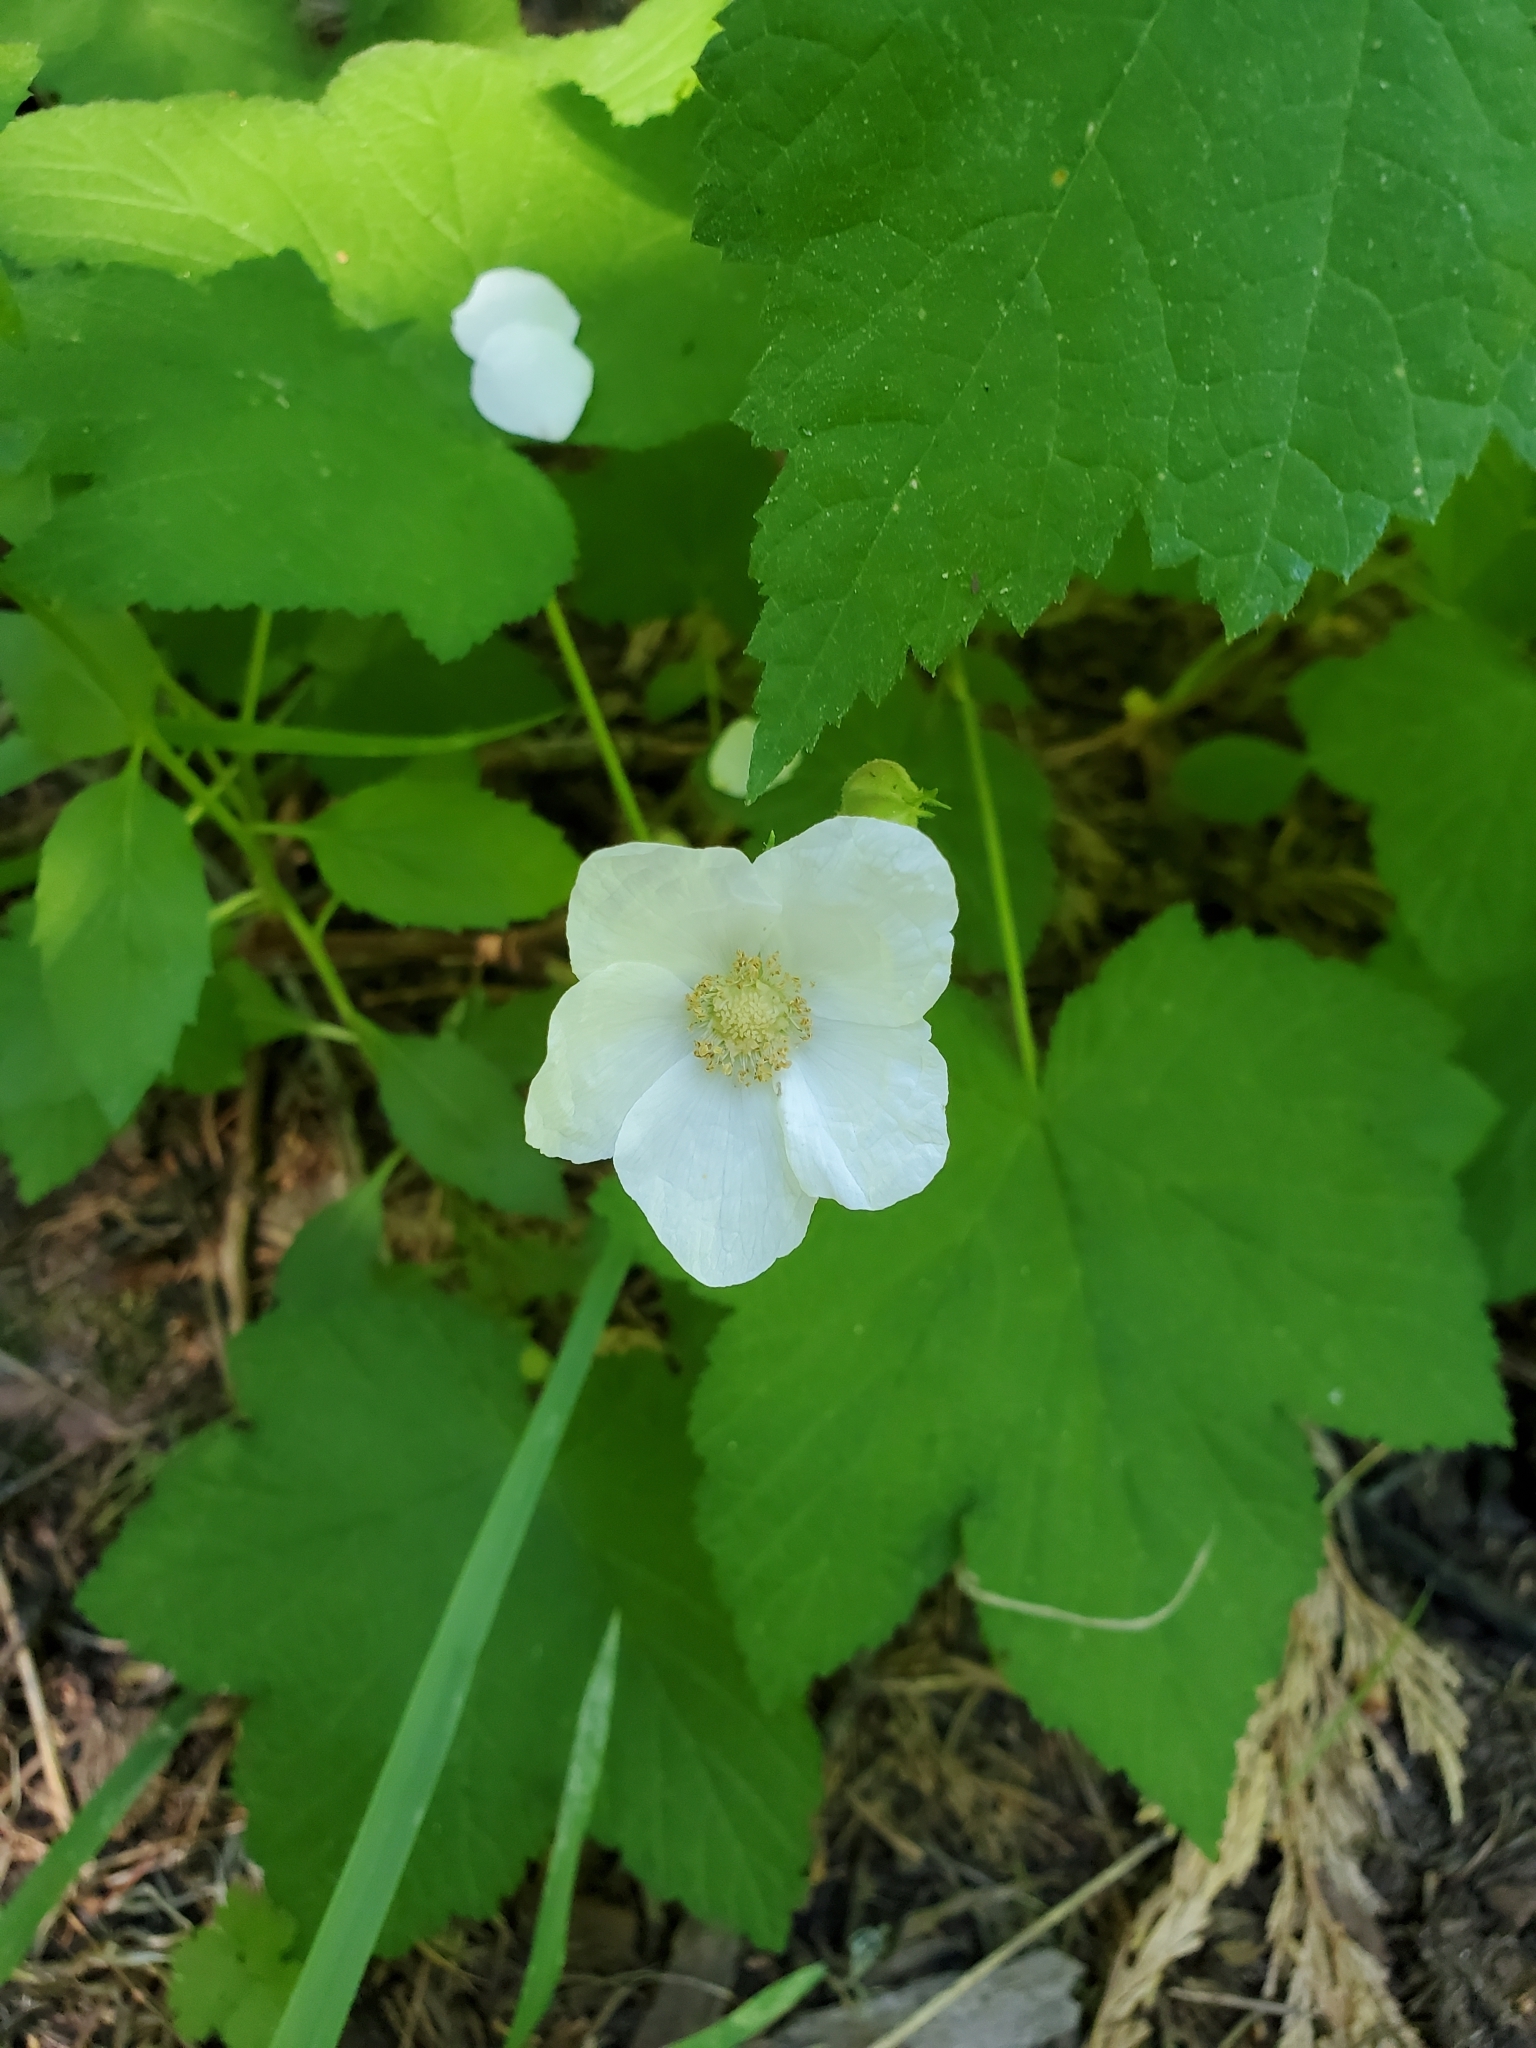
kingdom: Plantae
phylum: Tracheophyta
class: Magnoliopsida
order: Rosales
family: Rosaceae
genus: Rubus
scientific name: Rubus parviflorus
